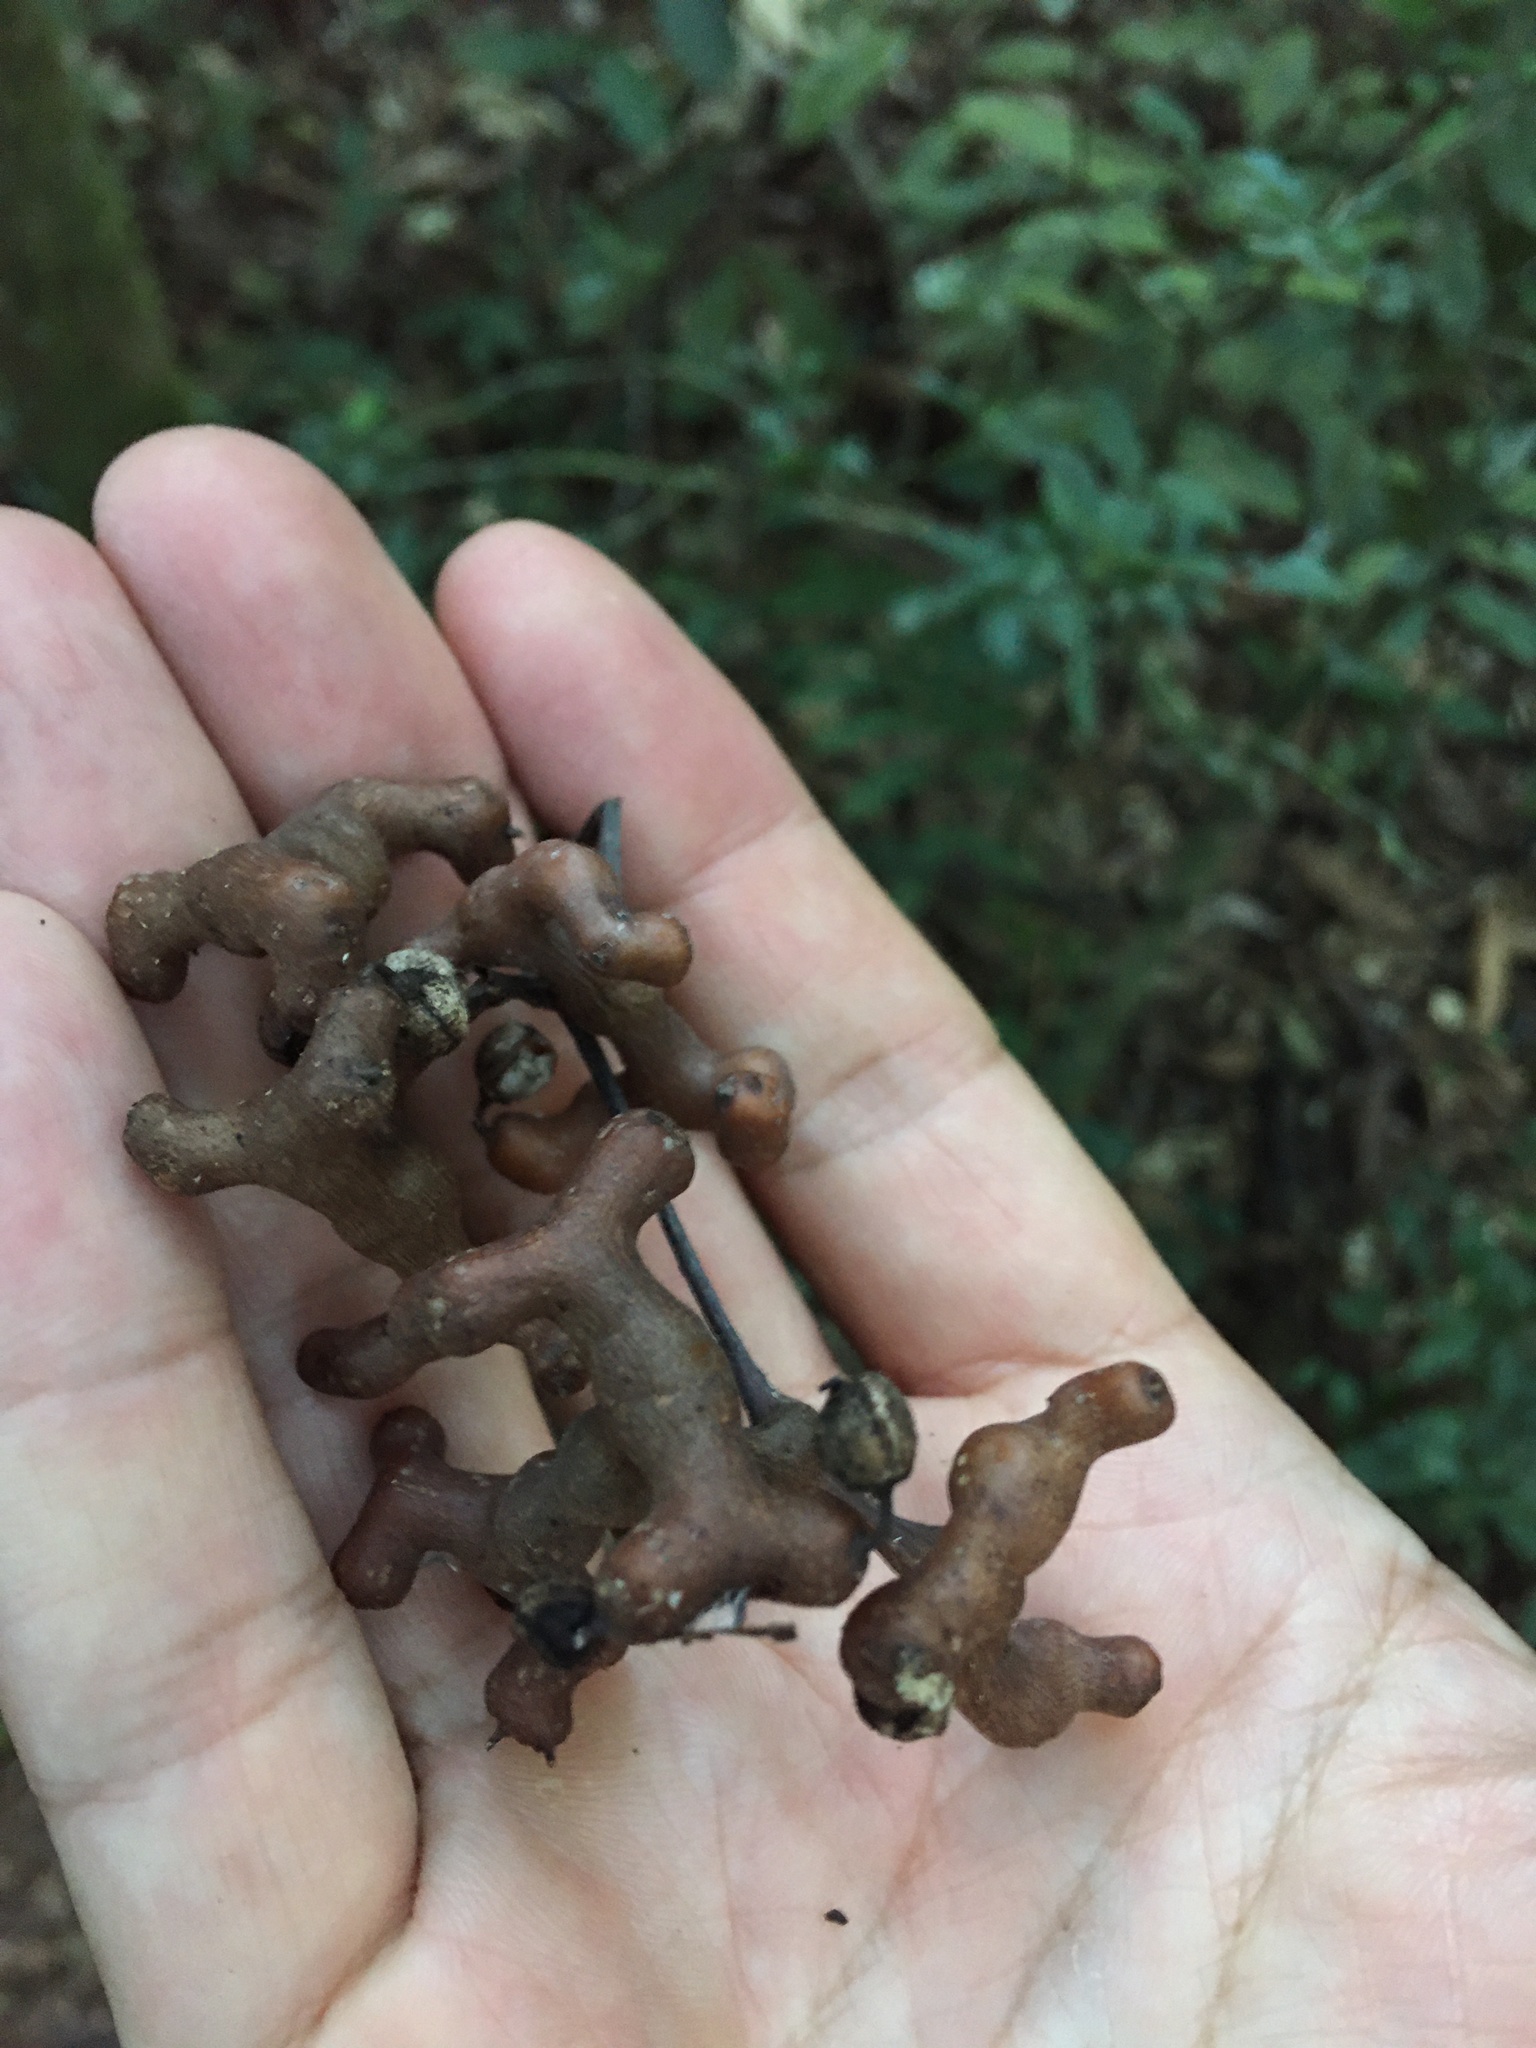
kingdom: Plantae
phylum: Tracheophyta
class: Magnoliopsida
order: Rosales
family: Rhamnaceae
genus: Hovenia
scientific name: Hovenia dulcis
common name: Japanese raisintree
